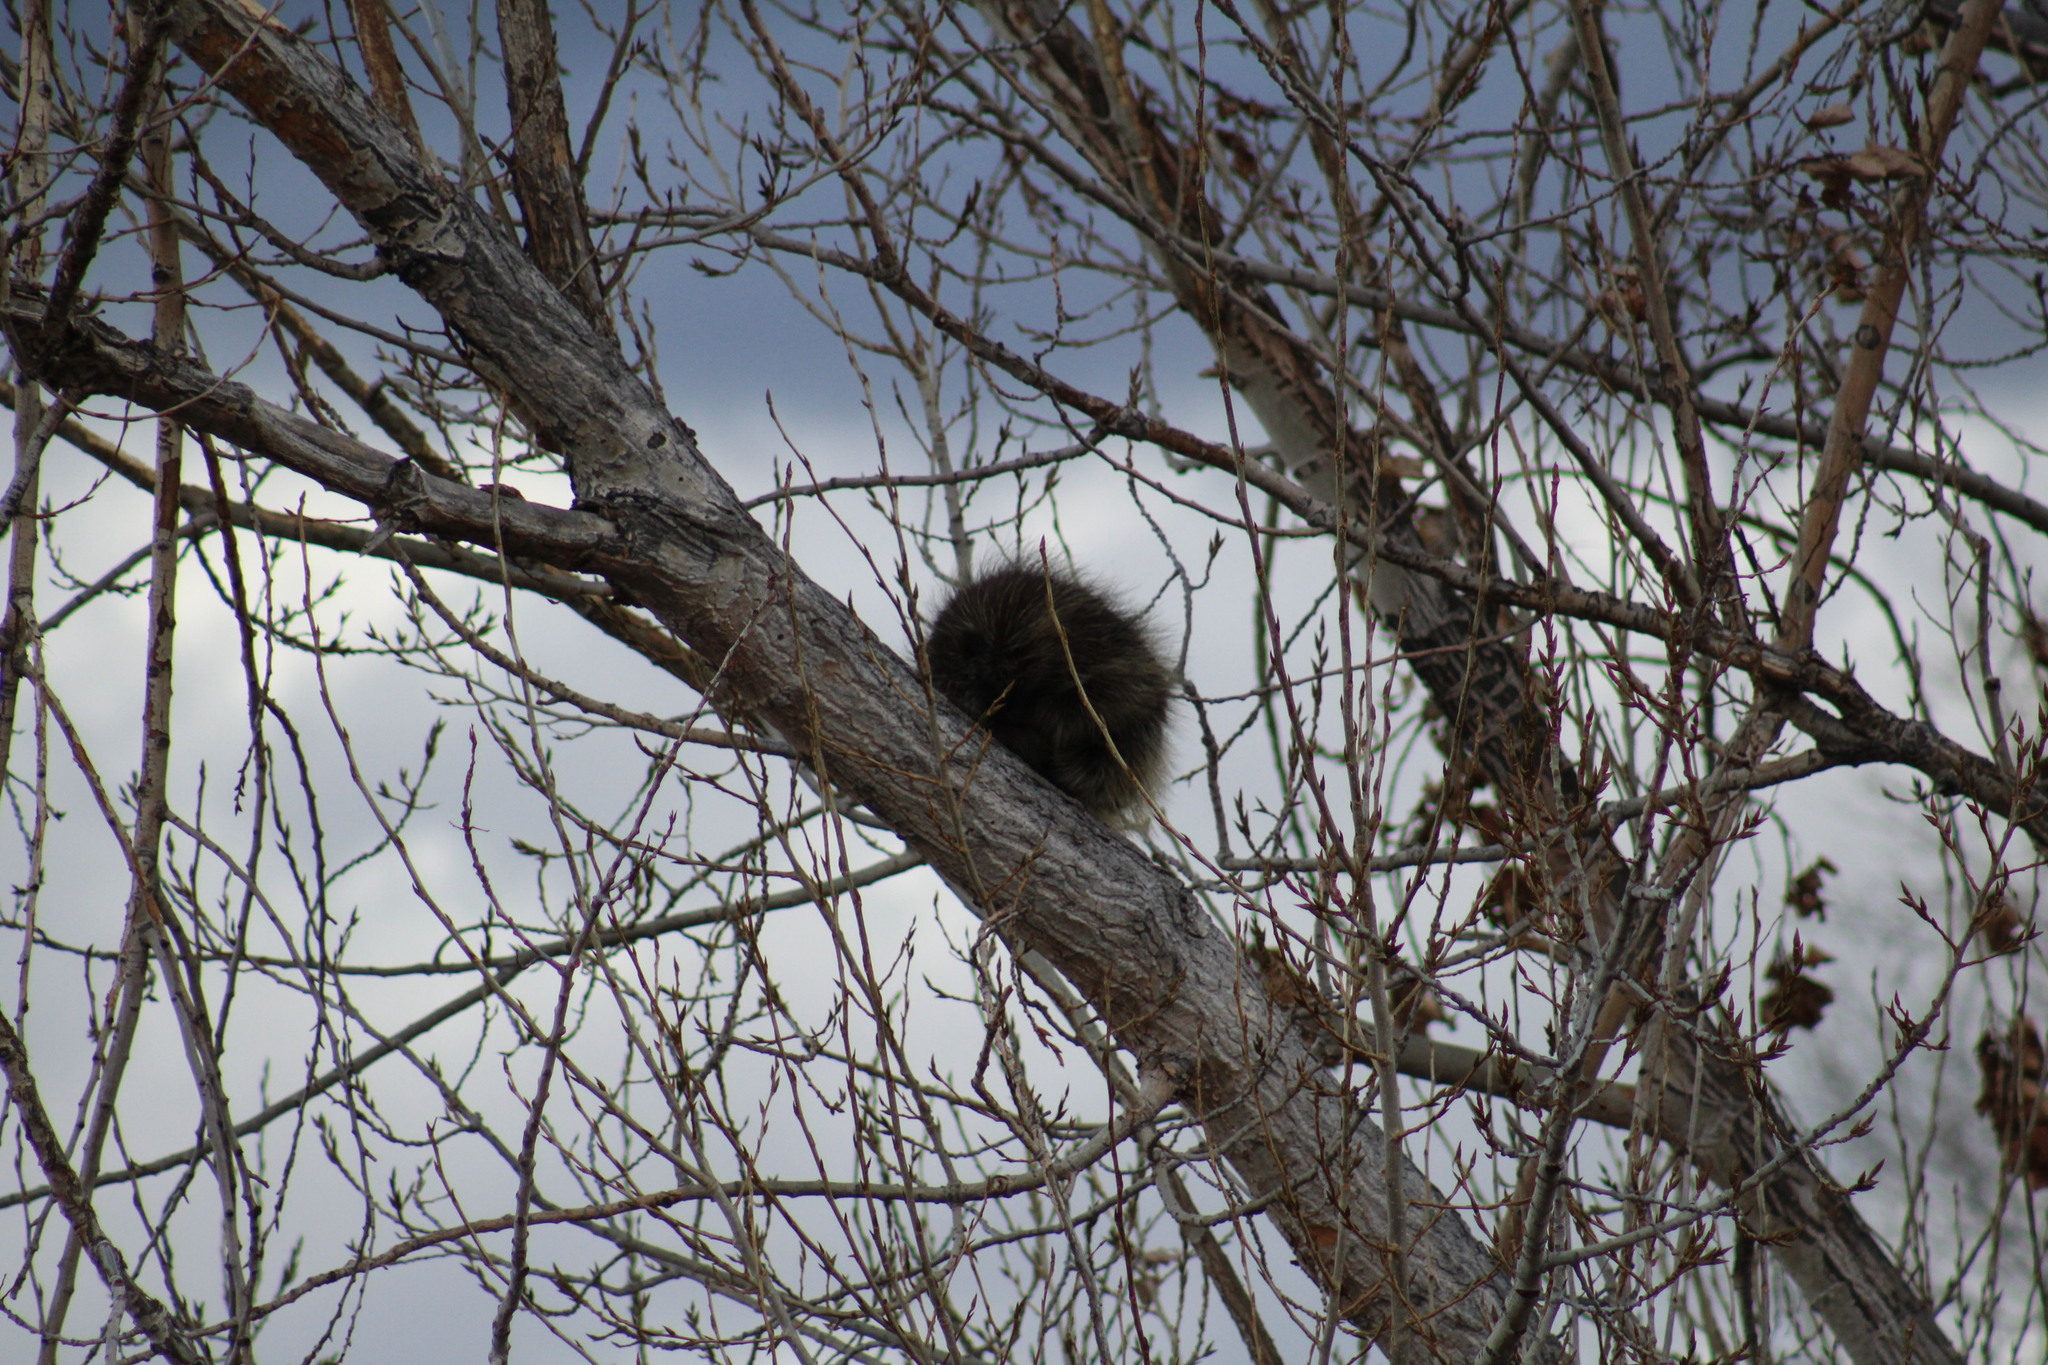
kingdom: Animalia
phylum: Chordata
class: Mammalia
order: Rodentia
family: Erethizontidae
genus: Erethizon
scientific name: Erethizon dorsatus
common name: North american porcupine
